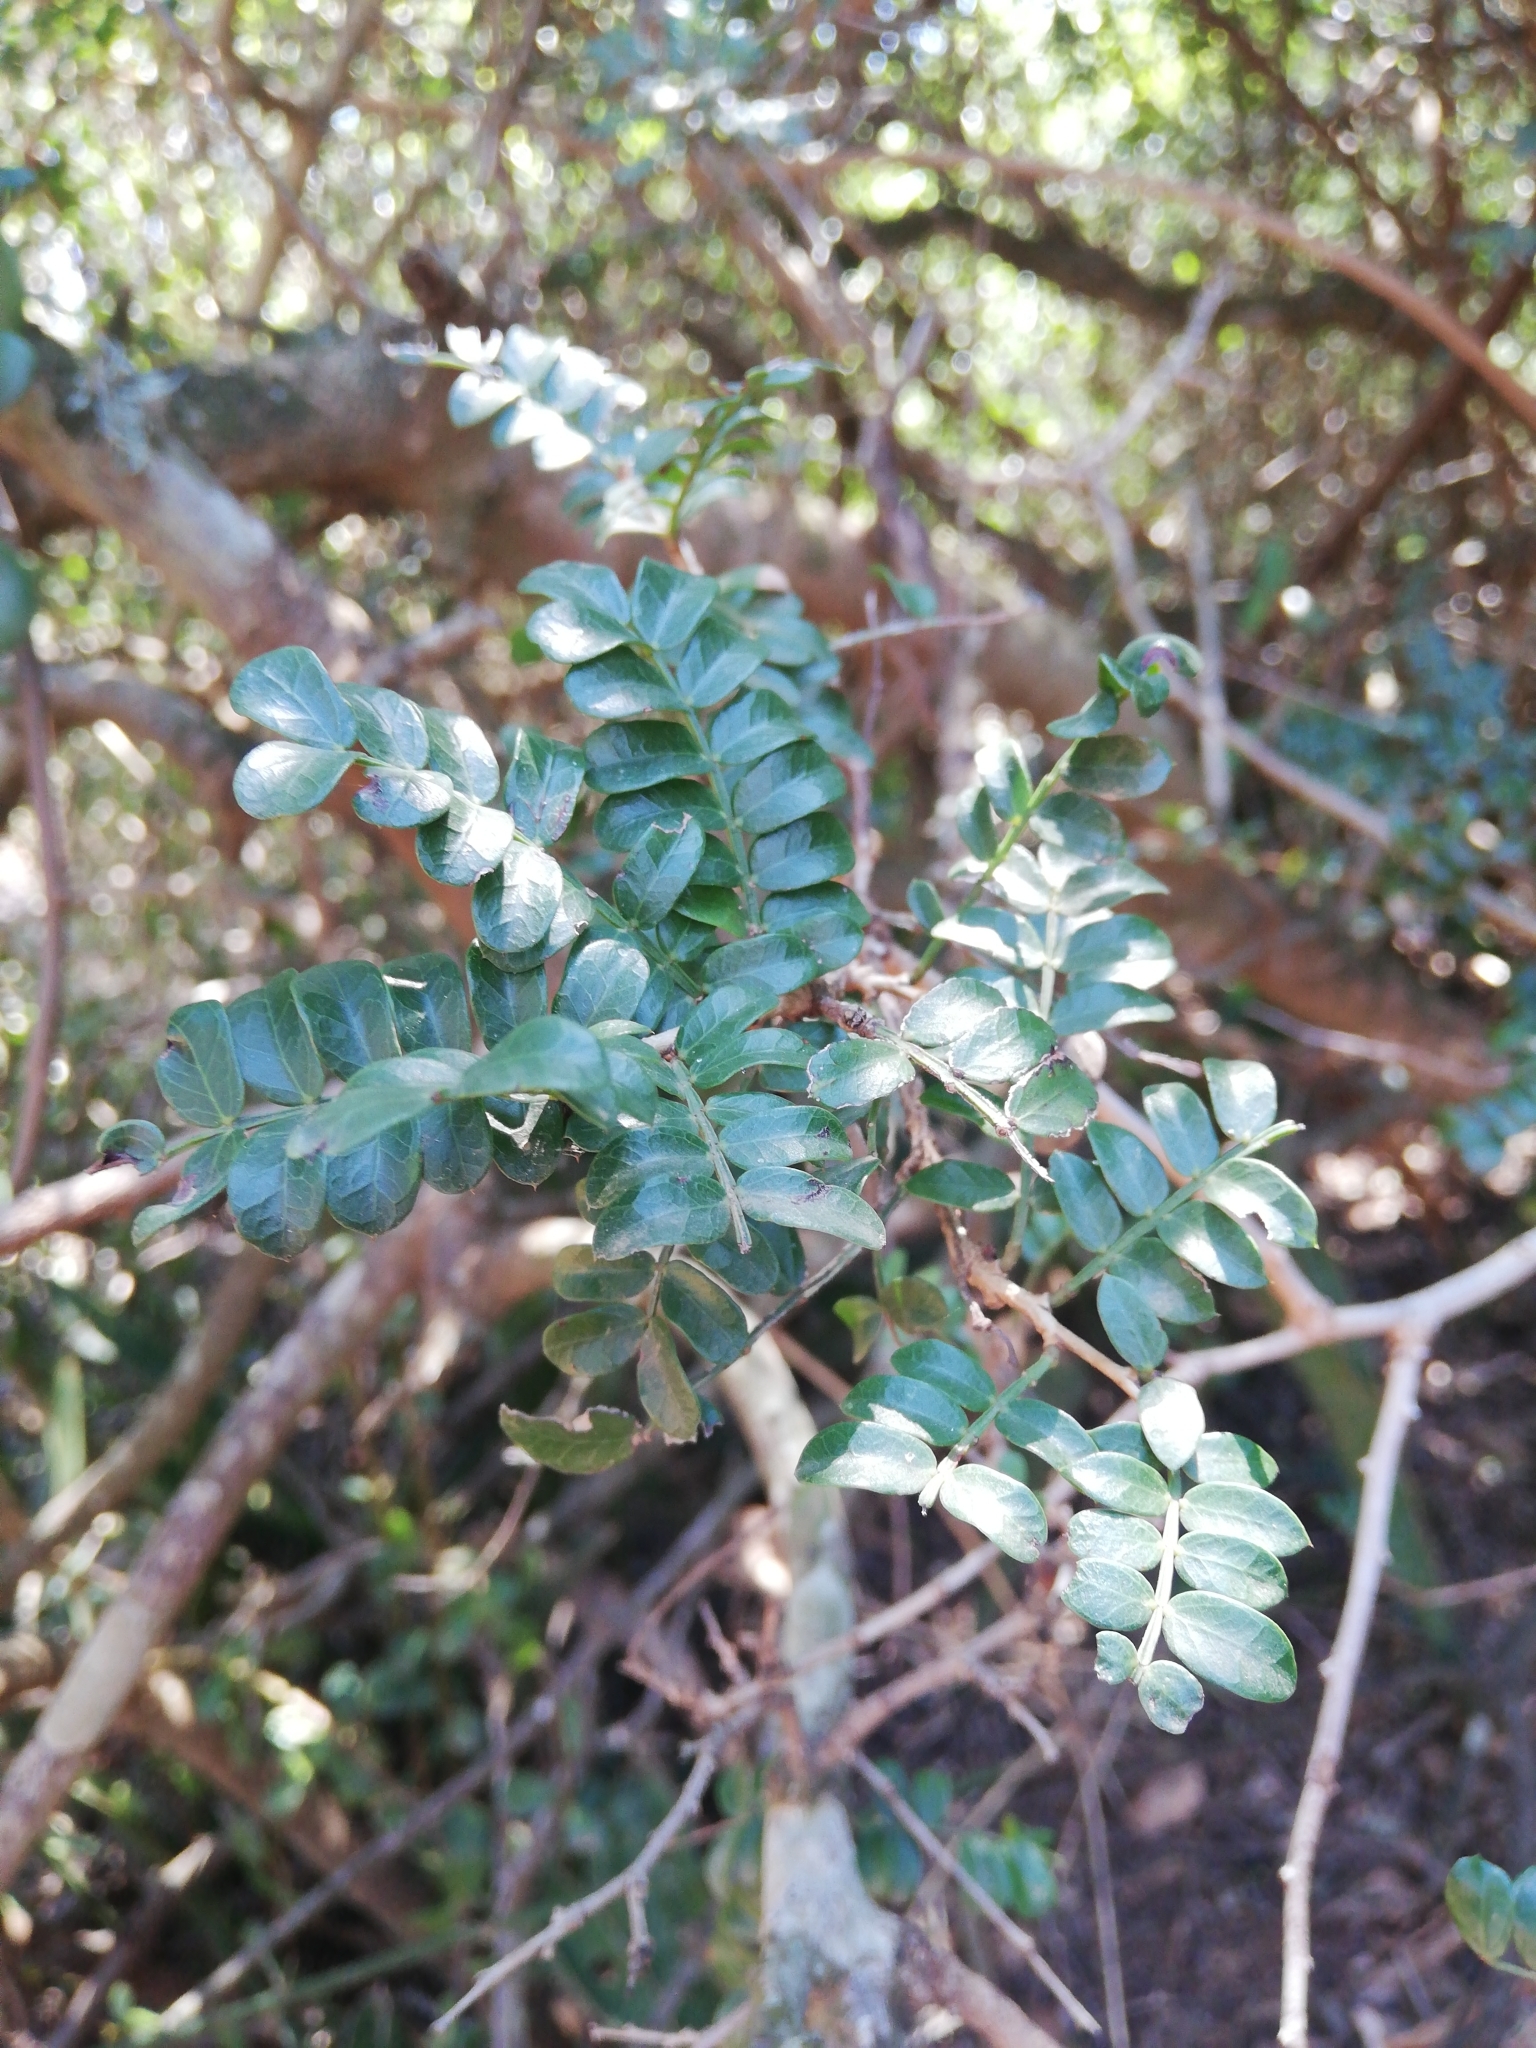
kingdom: Plantae
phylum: Tracheophyta
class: Magnoliopsida
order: Fabales
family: Fabaceae
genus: Schotia
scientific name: Schotia afra
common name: Hottentot's bean
